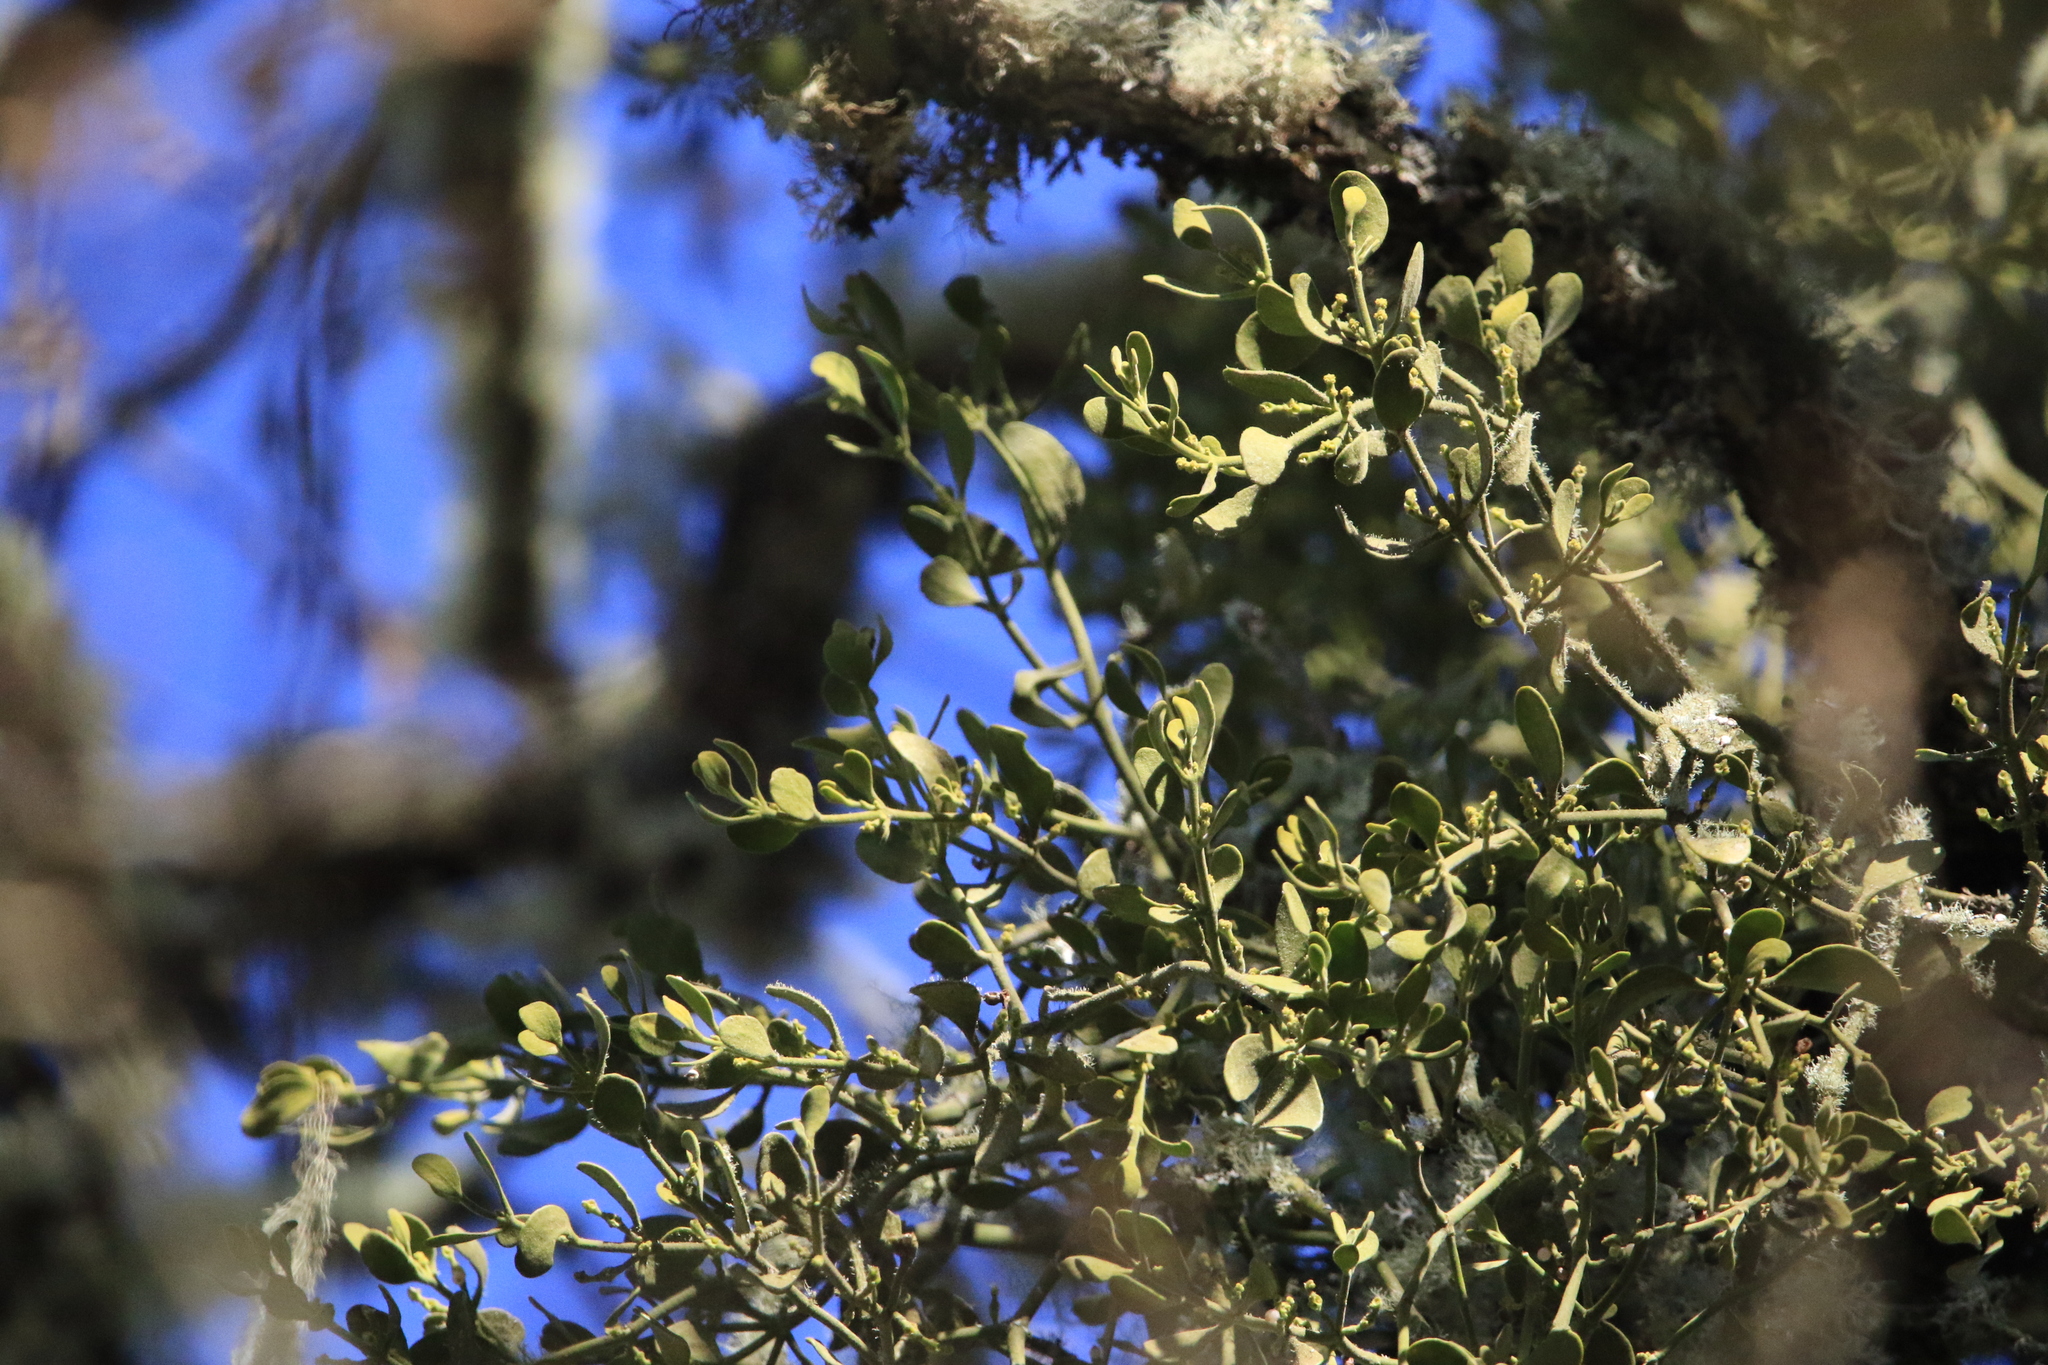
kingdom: Plantae
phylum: Tracheophyta
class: Magnoliopsida
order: Santalales
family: Viscaceae
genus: Phoradendron
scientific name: Phoradendron leucarpum
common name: Pacific mistletoe
